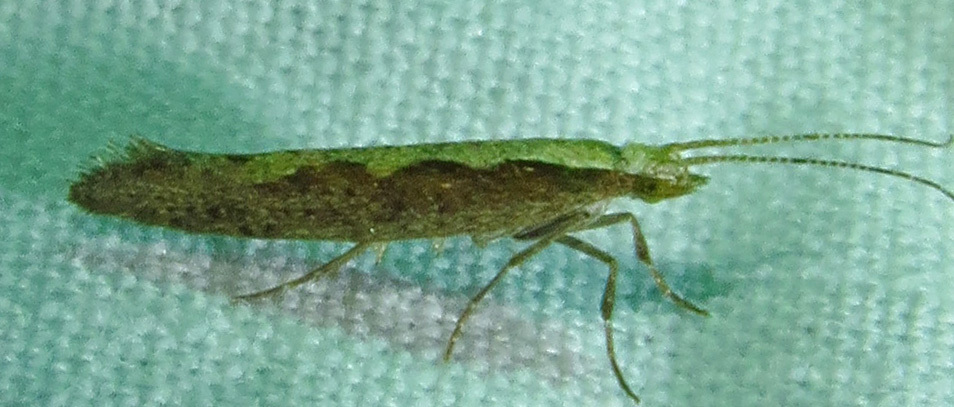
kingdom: Animalia
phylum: Arthropoda
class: Insecta
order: Lepidoptera
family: Plutellidae
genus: Plutella
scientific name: Plutella xylostella
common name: Diamond-back moth
